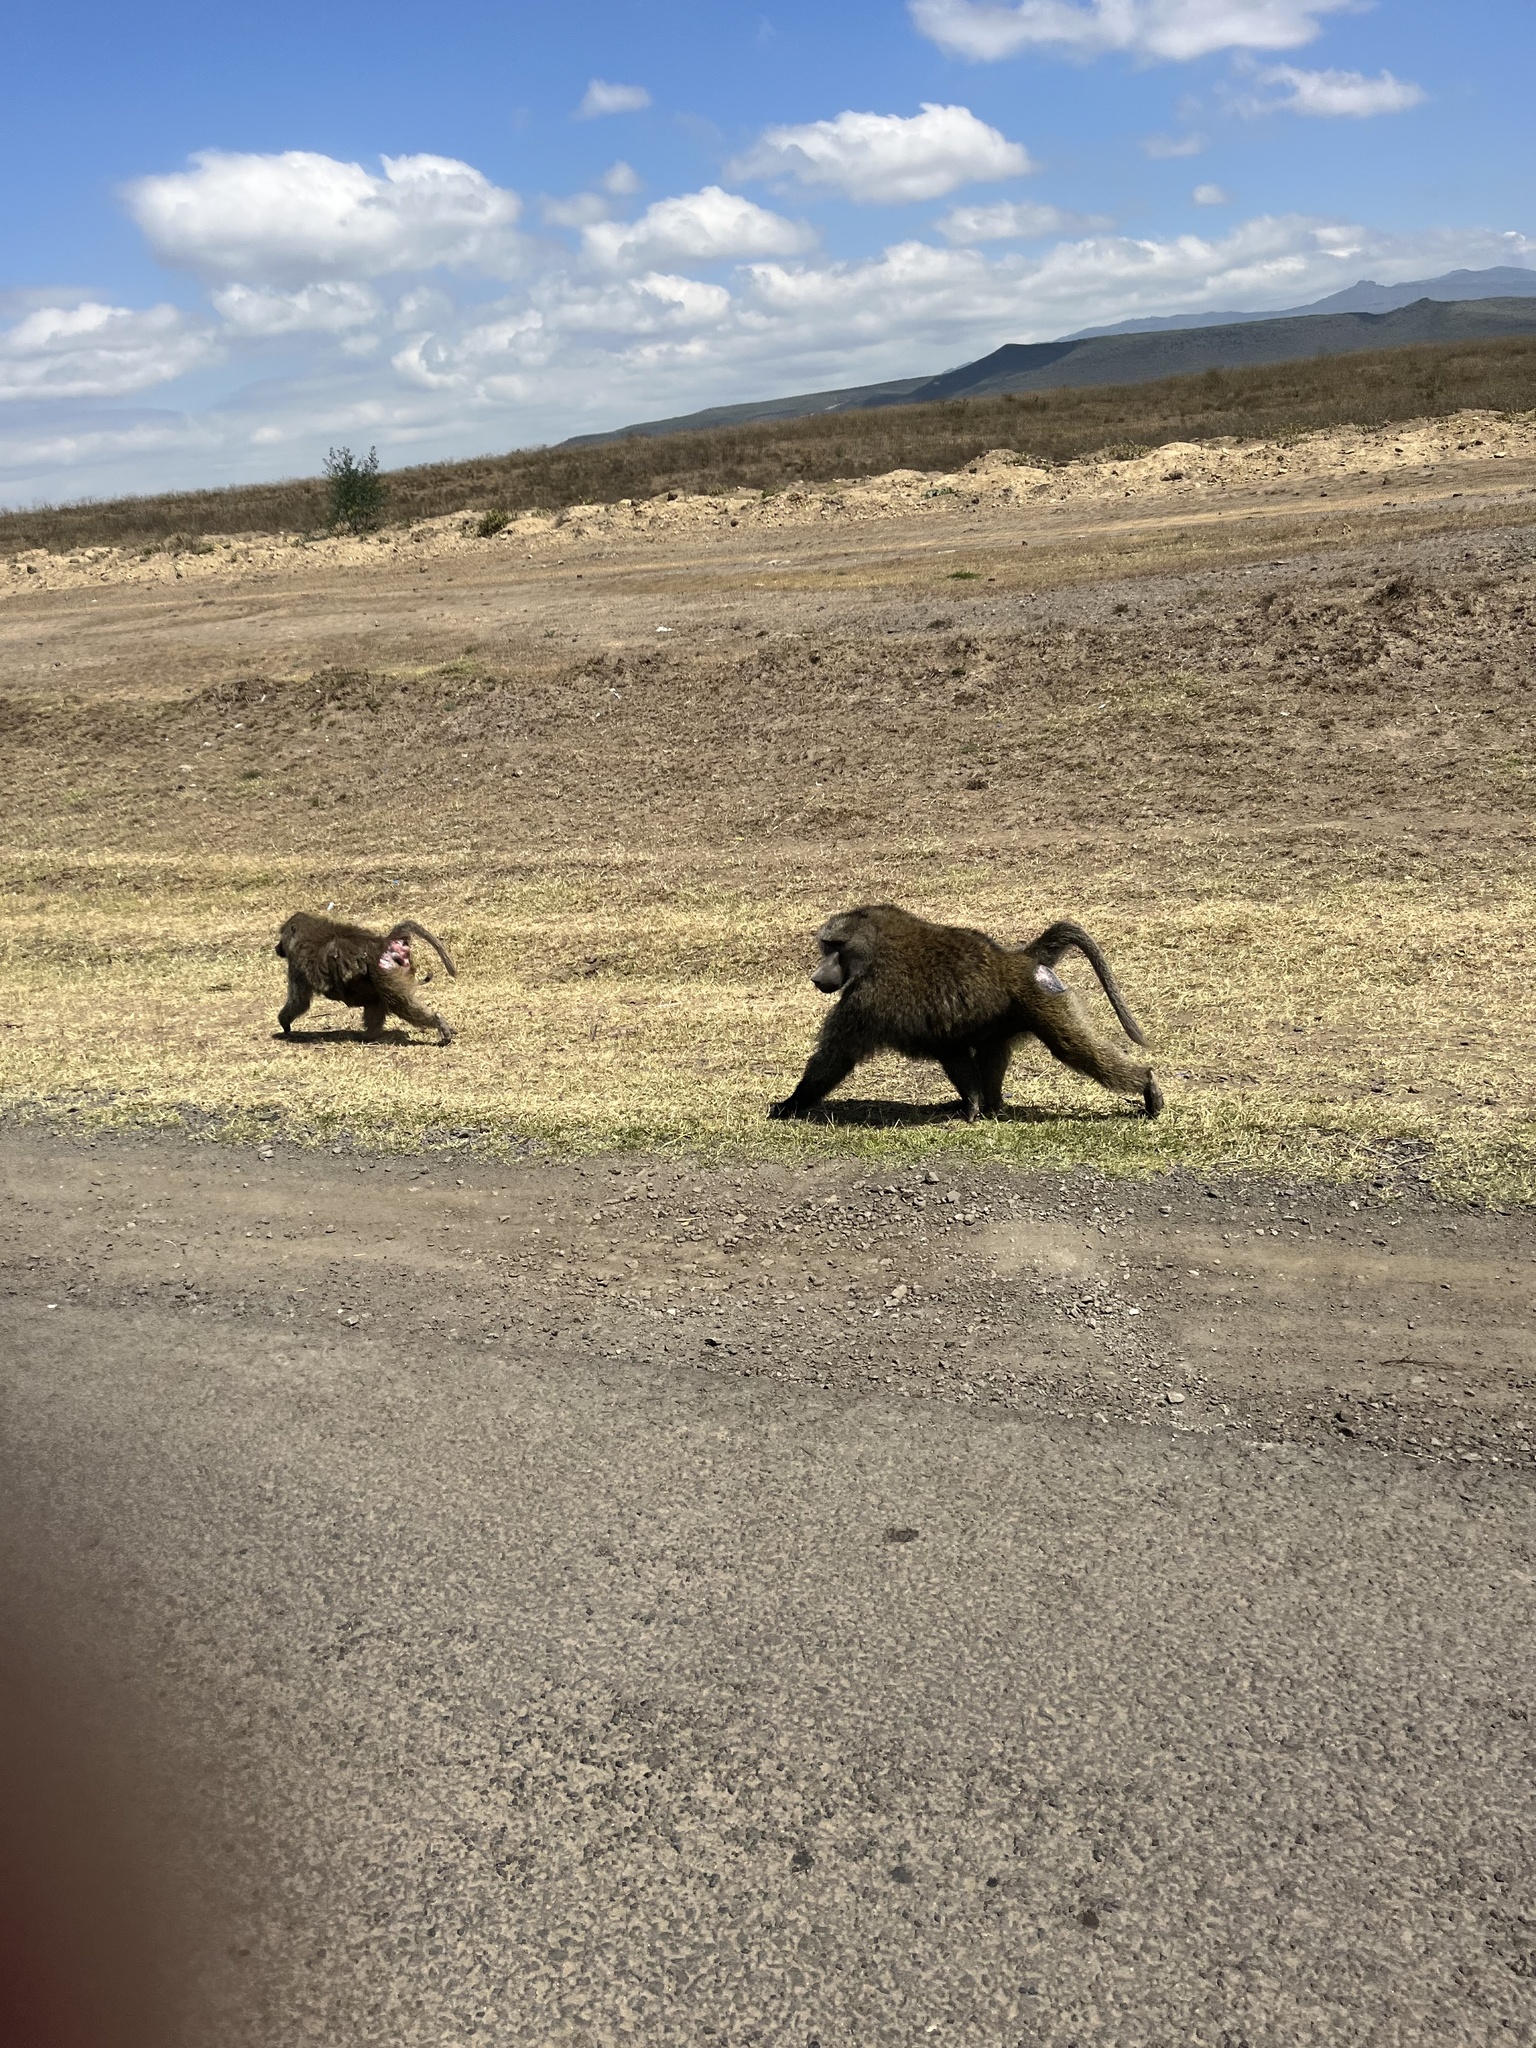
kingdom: Animalia
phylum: Chordata
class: Mammalia
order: Primates
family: Cercopithecidae
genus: Papio
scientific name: Papio anubis
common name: Olive baboon
